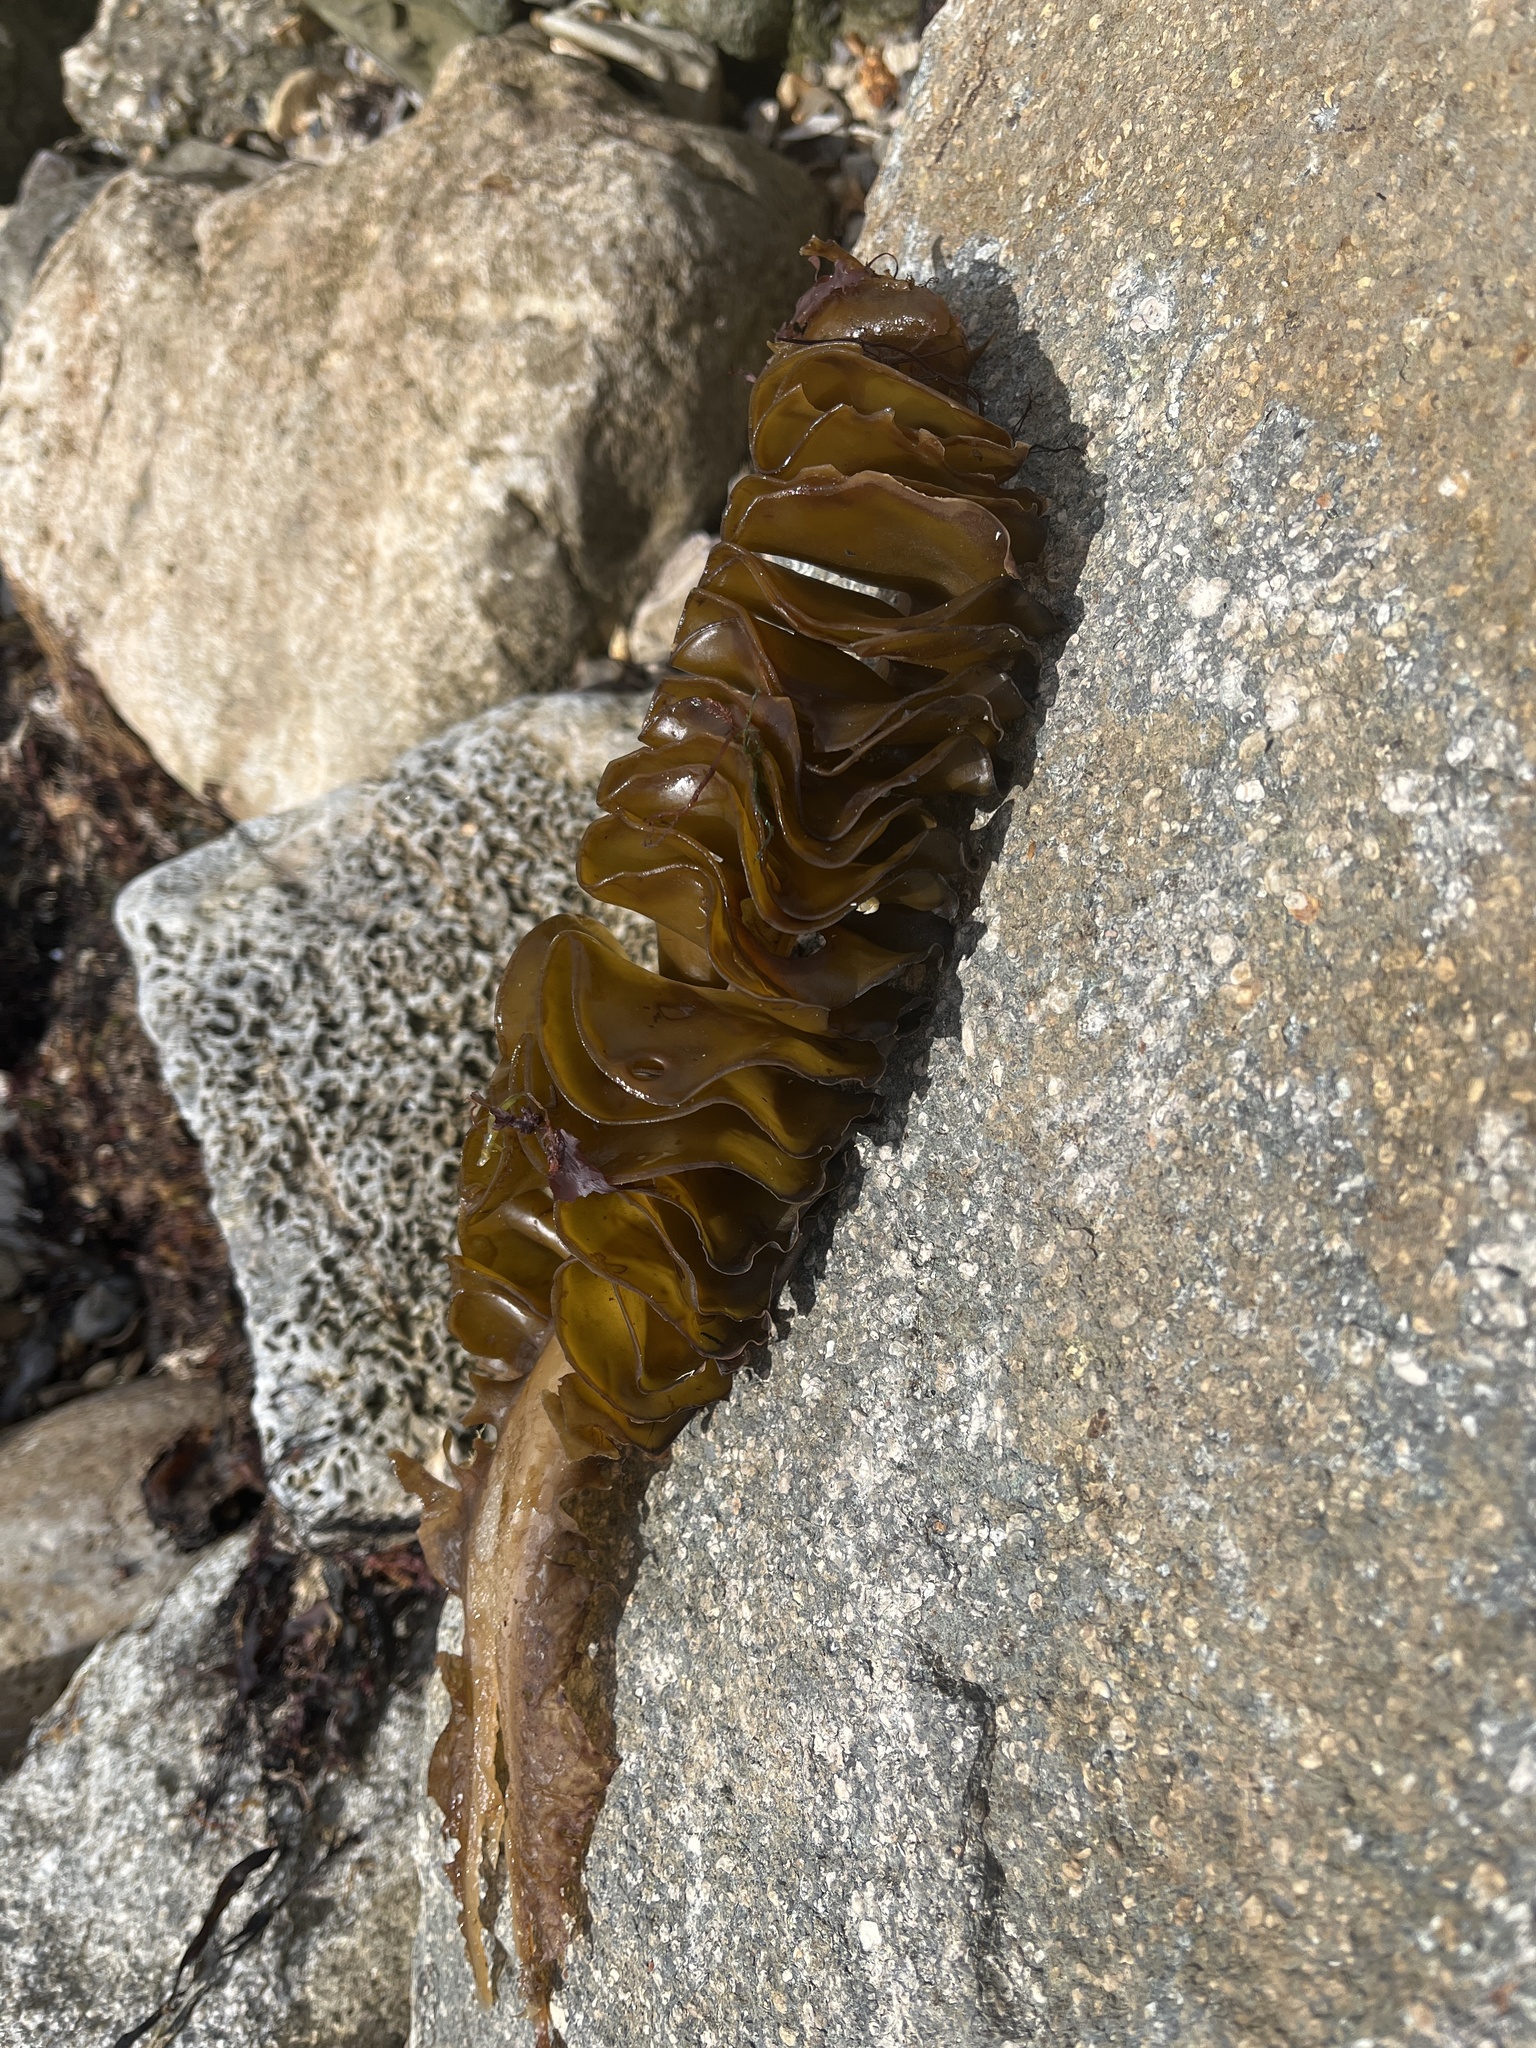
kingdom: Chromista
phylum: Ochrophyta
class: Phaeophyceae
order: Laminariales
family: Alariaceae
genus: Undaria
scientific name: Undaria pinnatifida
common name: Asian kelp
